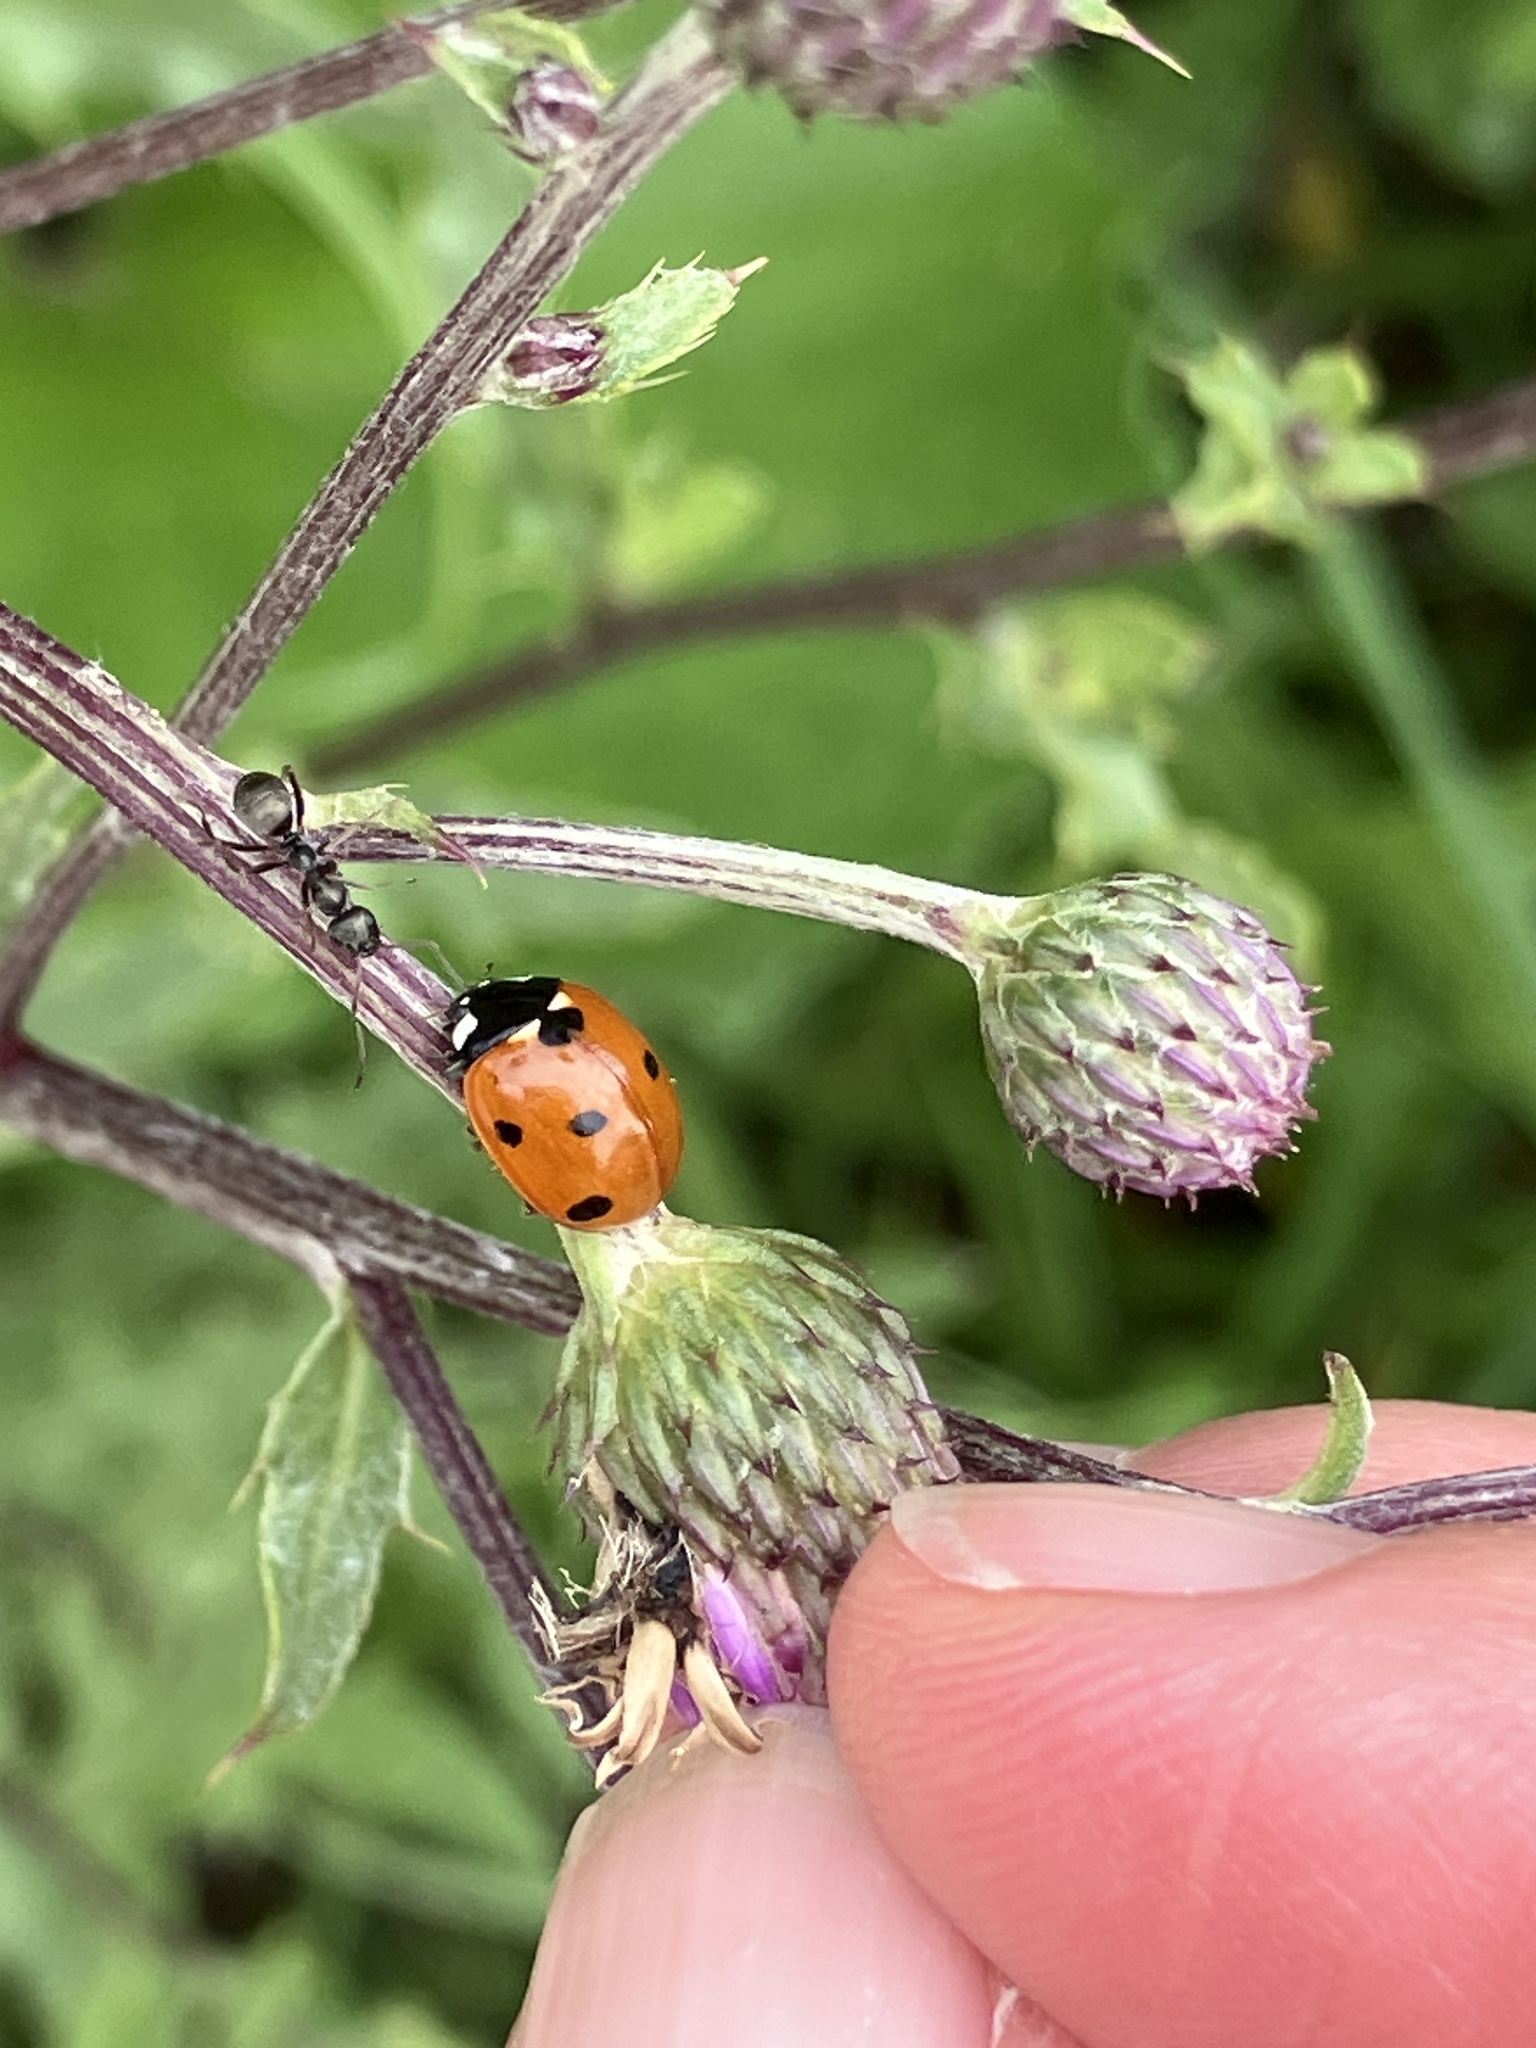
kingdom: Animalia
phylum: Arthropoda
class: Insecta
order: Coleoptera
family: Coccinellidae
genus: Coccinella
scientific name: Coccinella septempunctata
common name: Sevenspotted lady beetle
